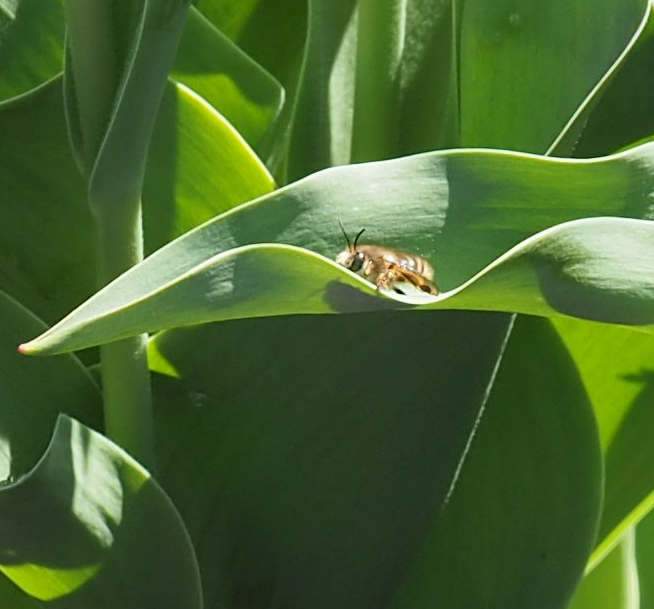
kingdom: Animalia
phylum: Arthropoda
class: Insecta
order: Hymenoptera
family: Apidae
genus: Anthophora
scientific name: Anthophora villosula
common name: Asian shaggy digger
